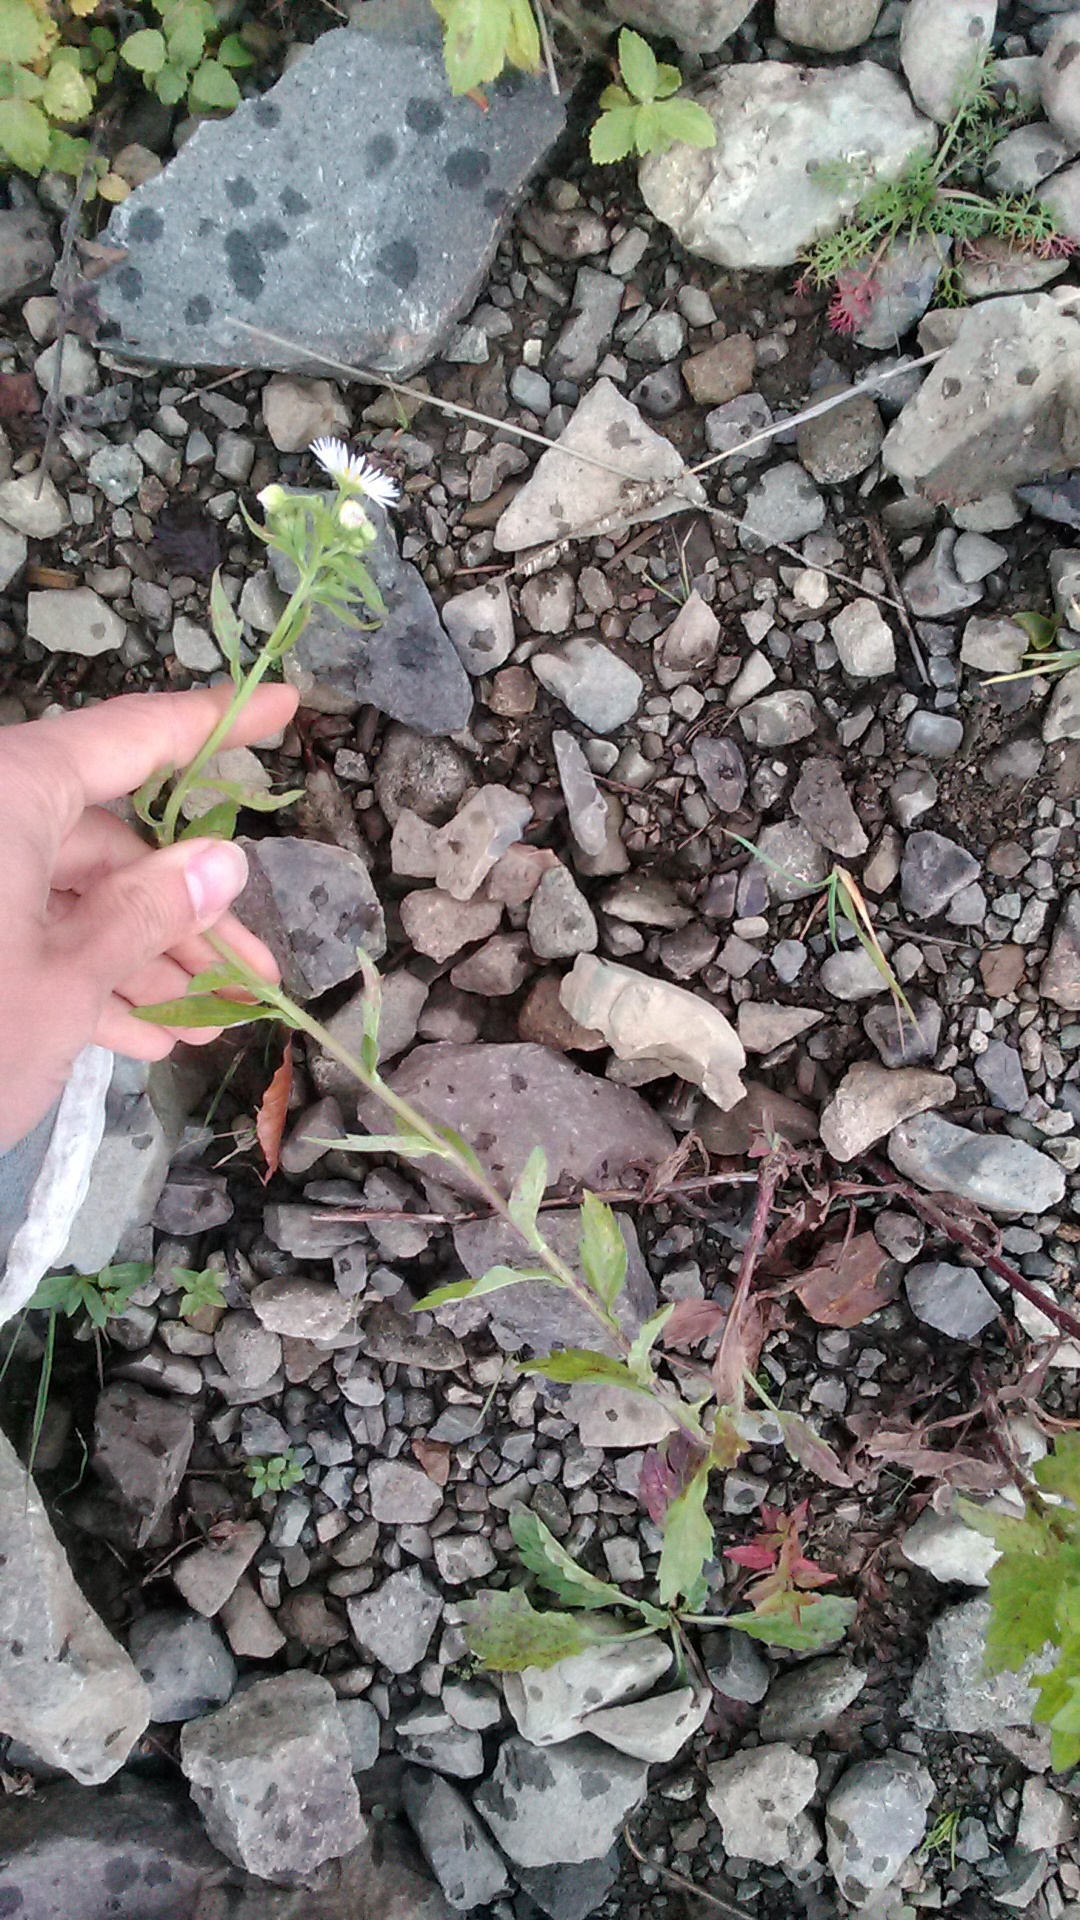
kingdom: Plantae
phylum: Tracheophyta
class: Magnoliopsida
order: Asterales
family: Asteraceae
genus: Erigeron
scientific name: Erigeron annuus
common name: Tall fleabane
